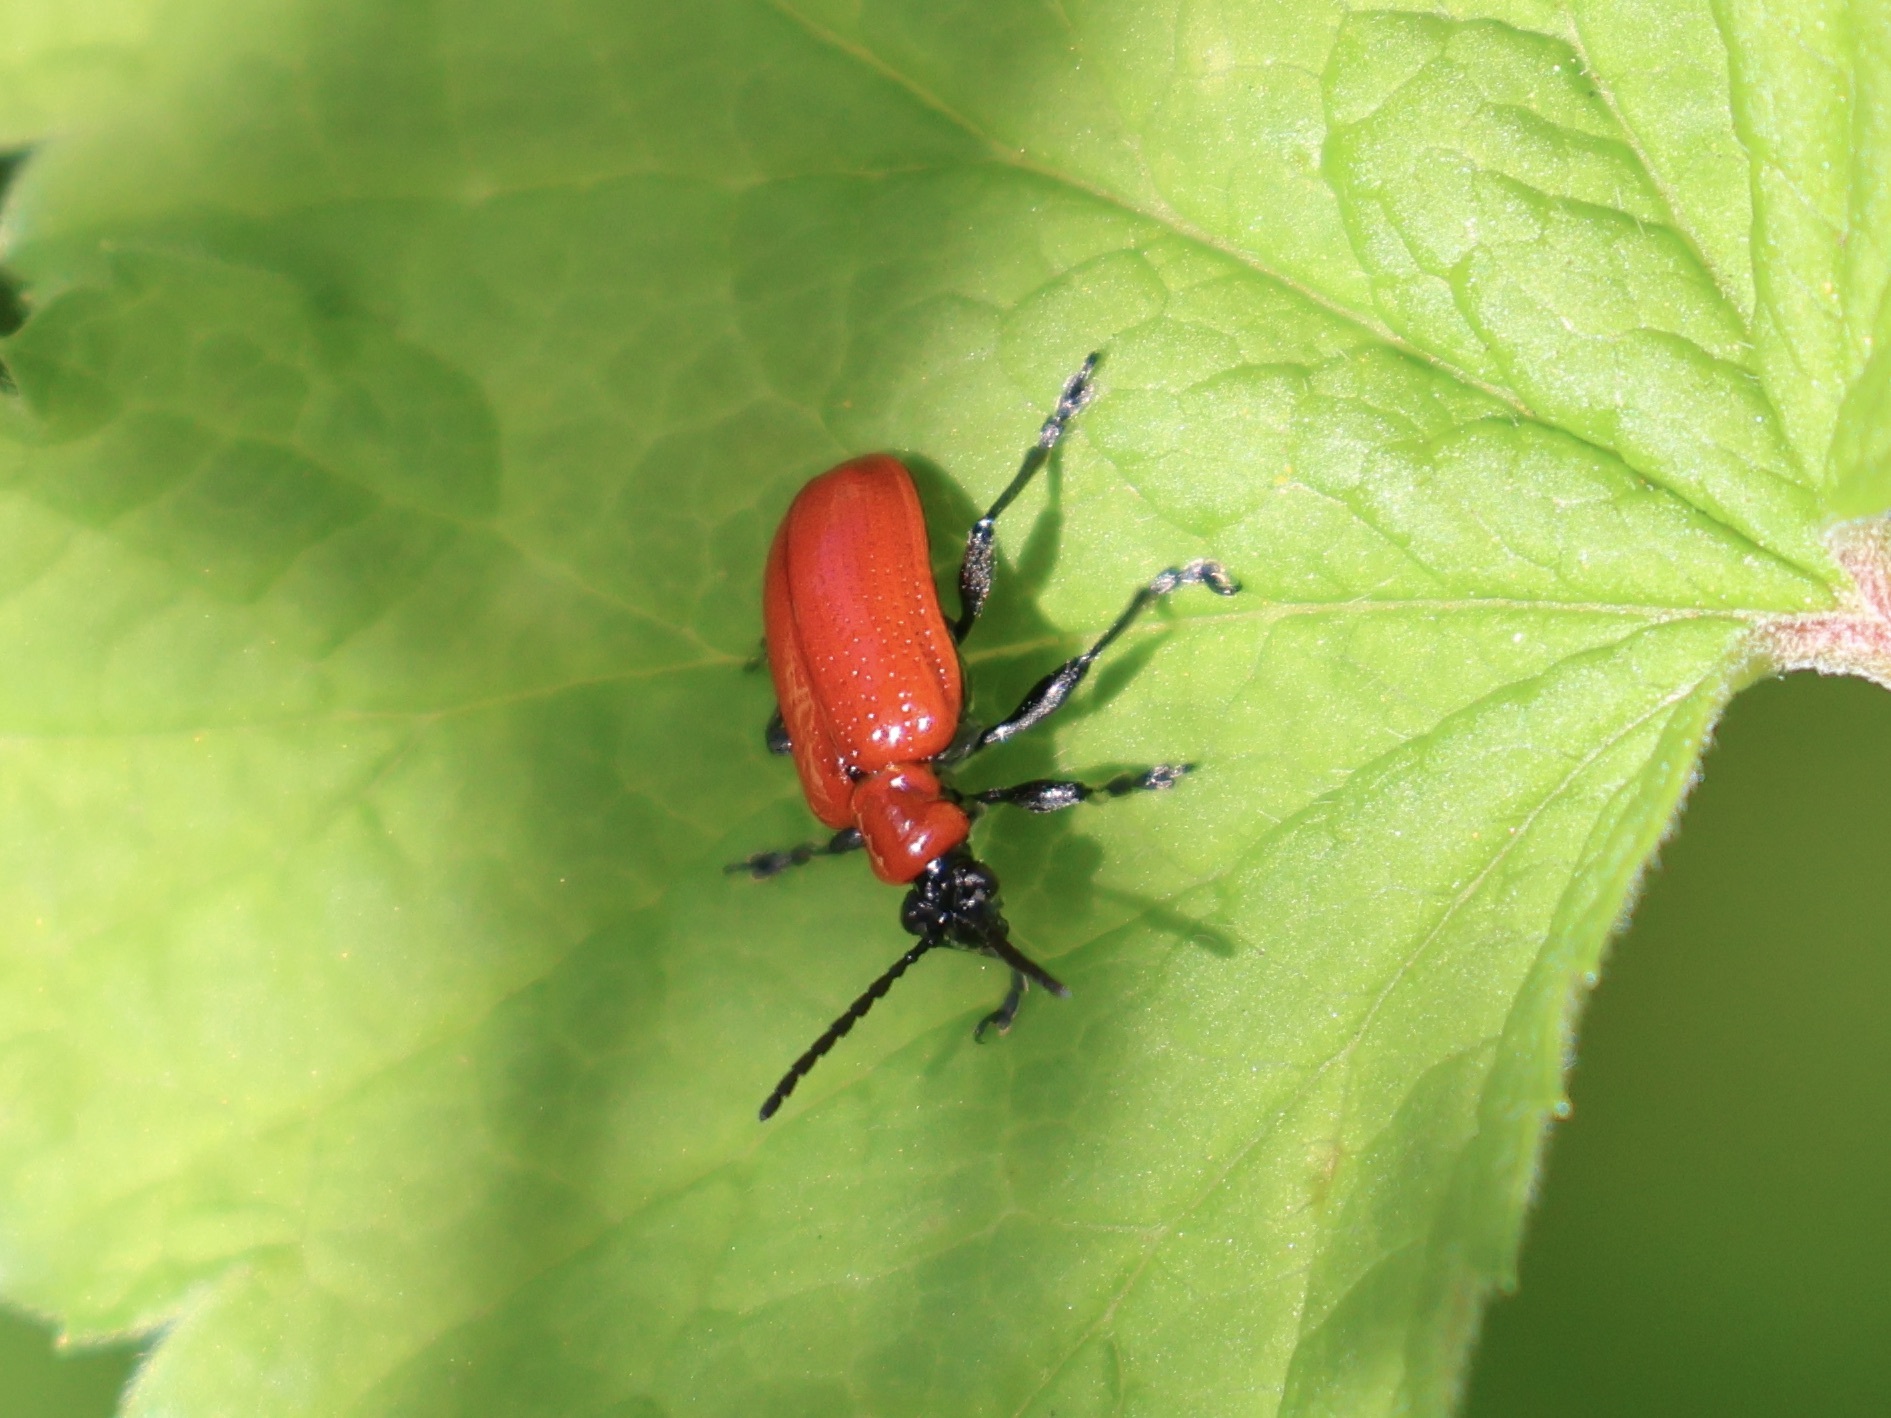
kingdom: Animalia
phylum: Arthropoda
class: Insecta
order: Coleoptera
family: Chrysomelidae
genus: Lilioceris
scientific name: Lilioceris lilii
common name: Lily beetle
